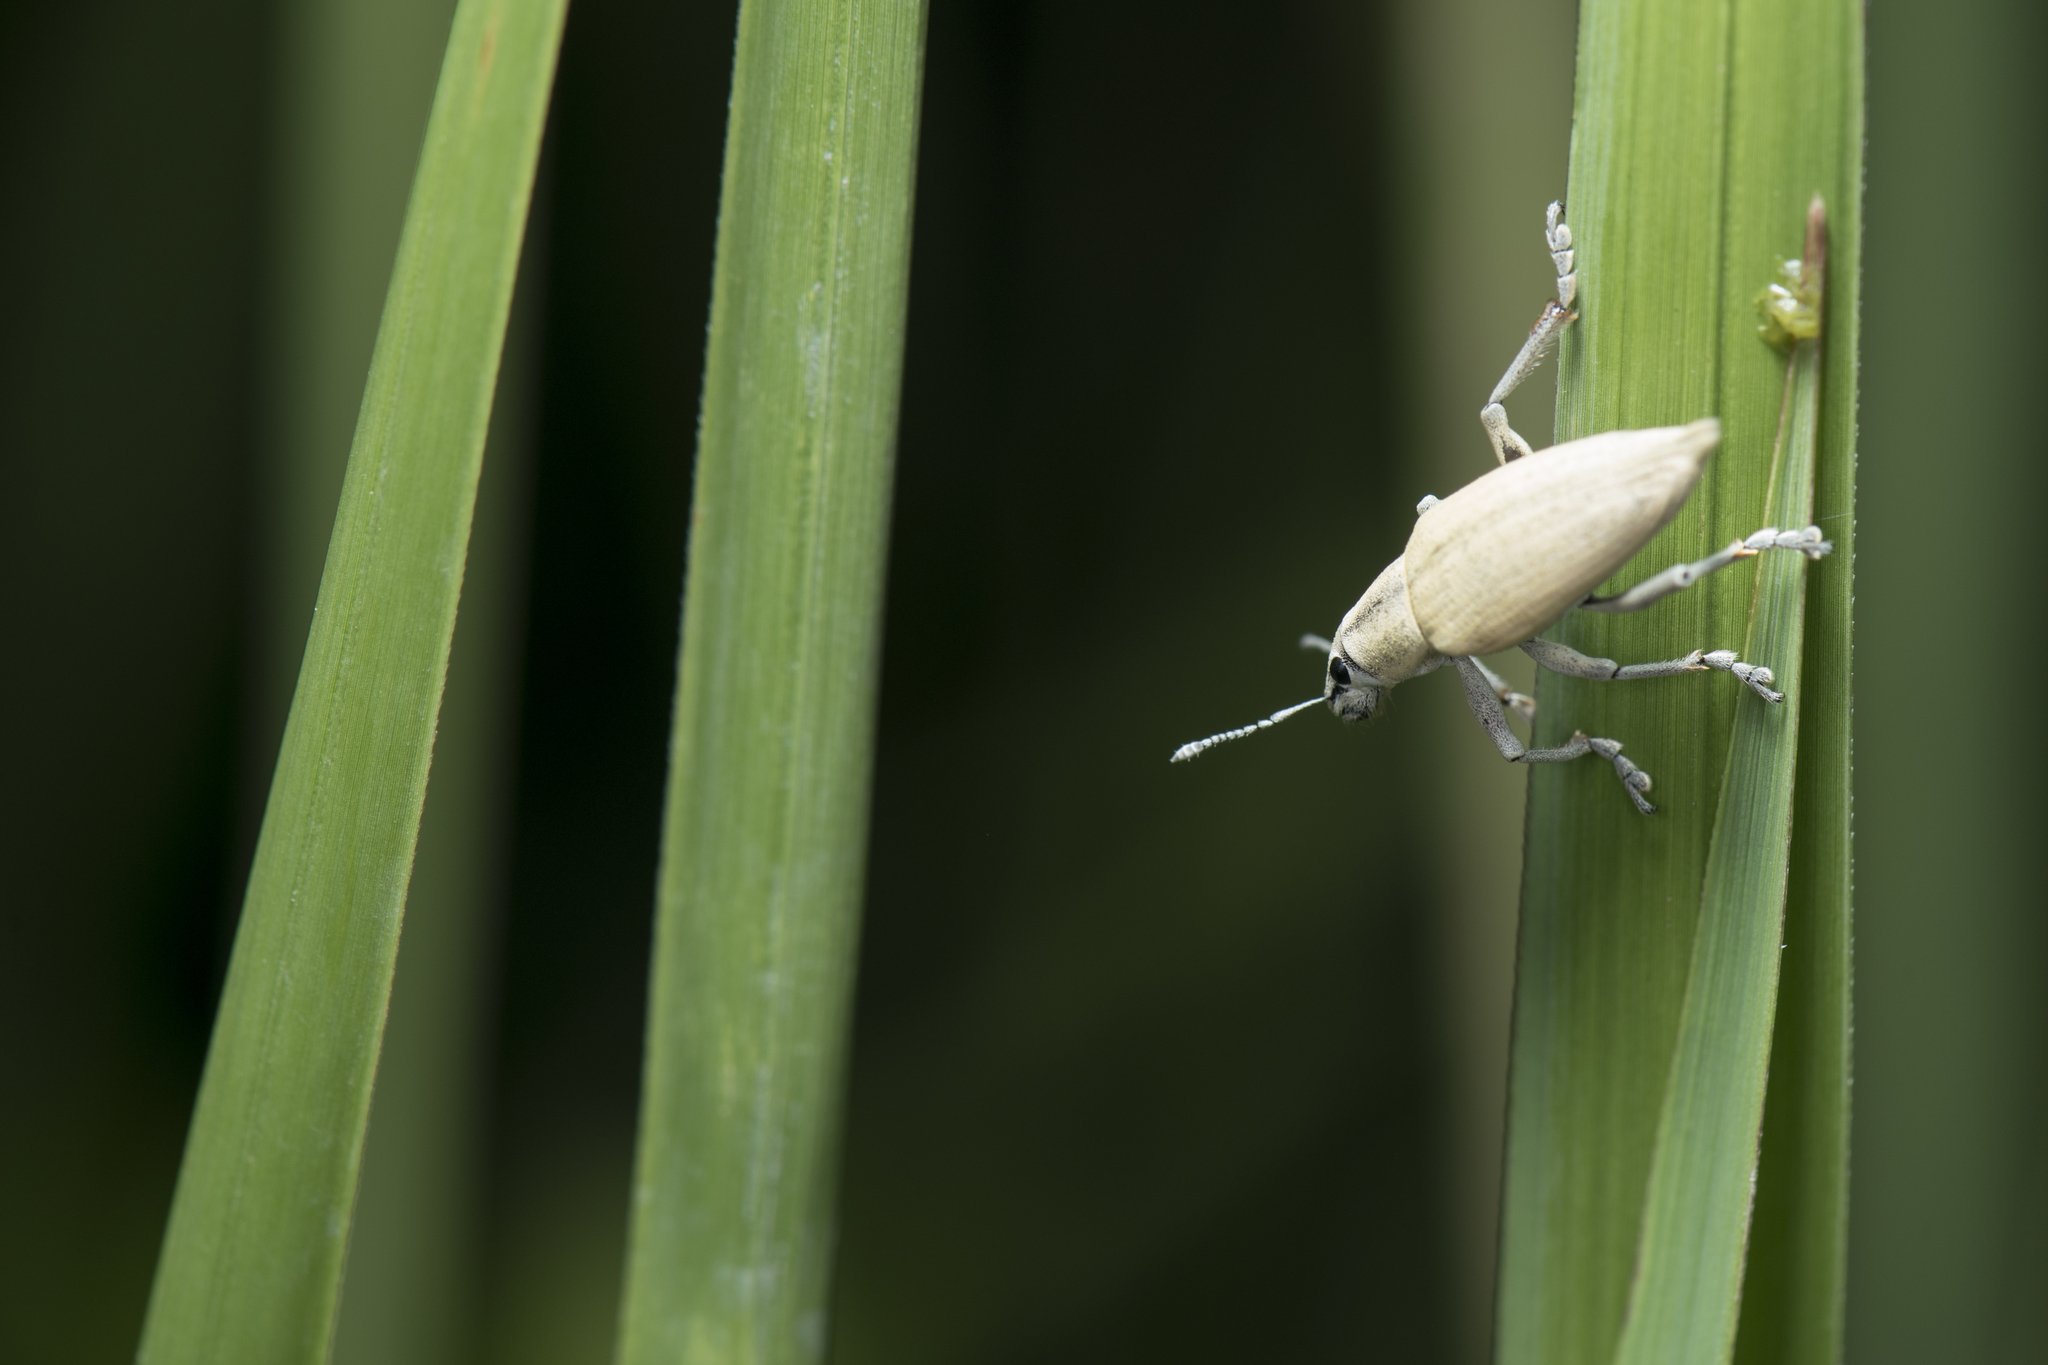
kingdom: Animalia
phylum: Arthropoda
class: Insecta
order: Coleoptera
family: Curculionidae
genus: Esamus
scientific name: Esamus circumdatus
